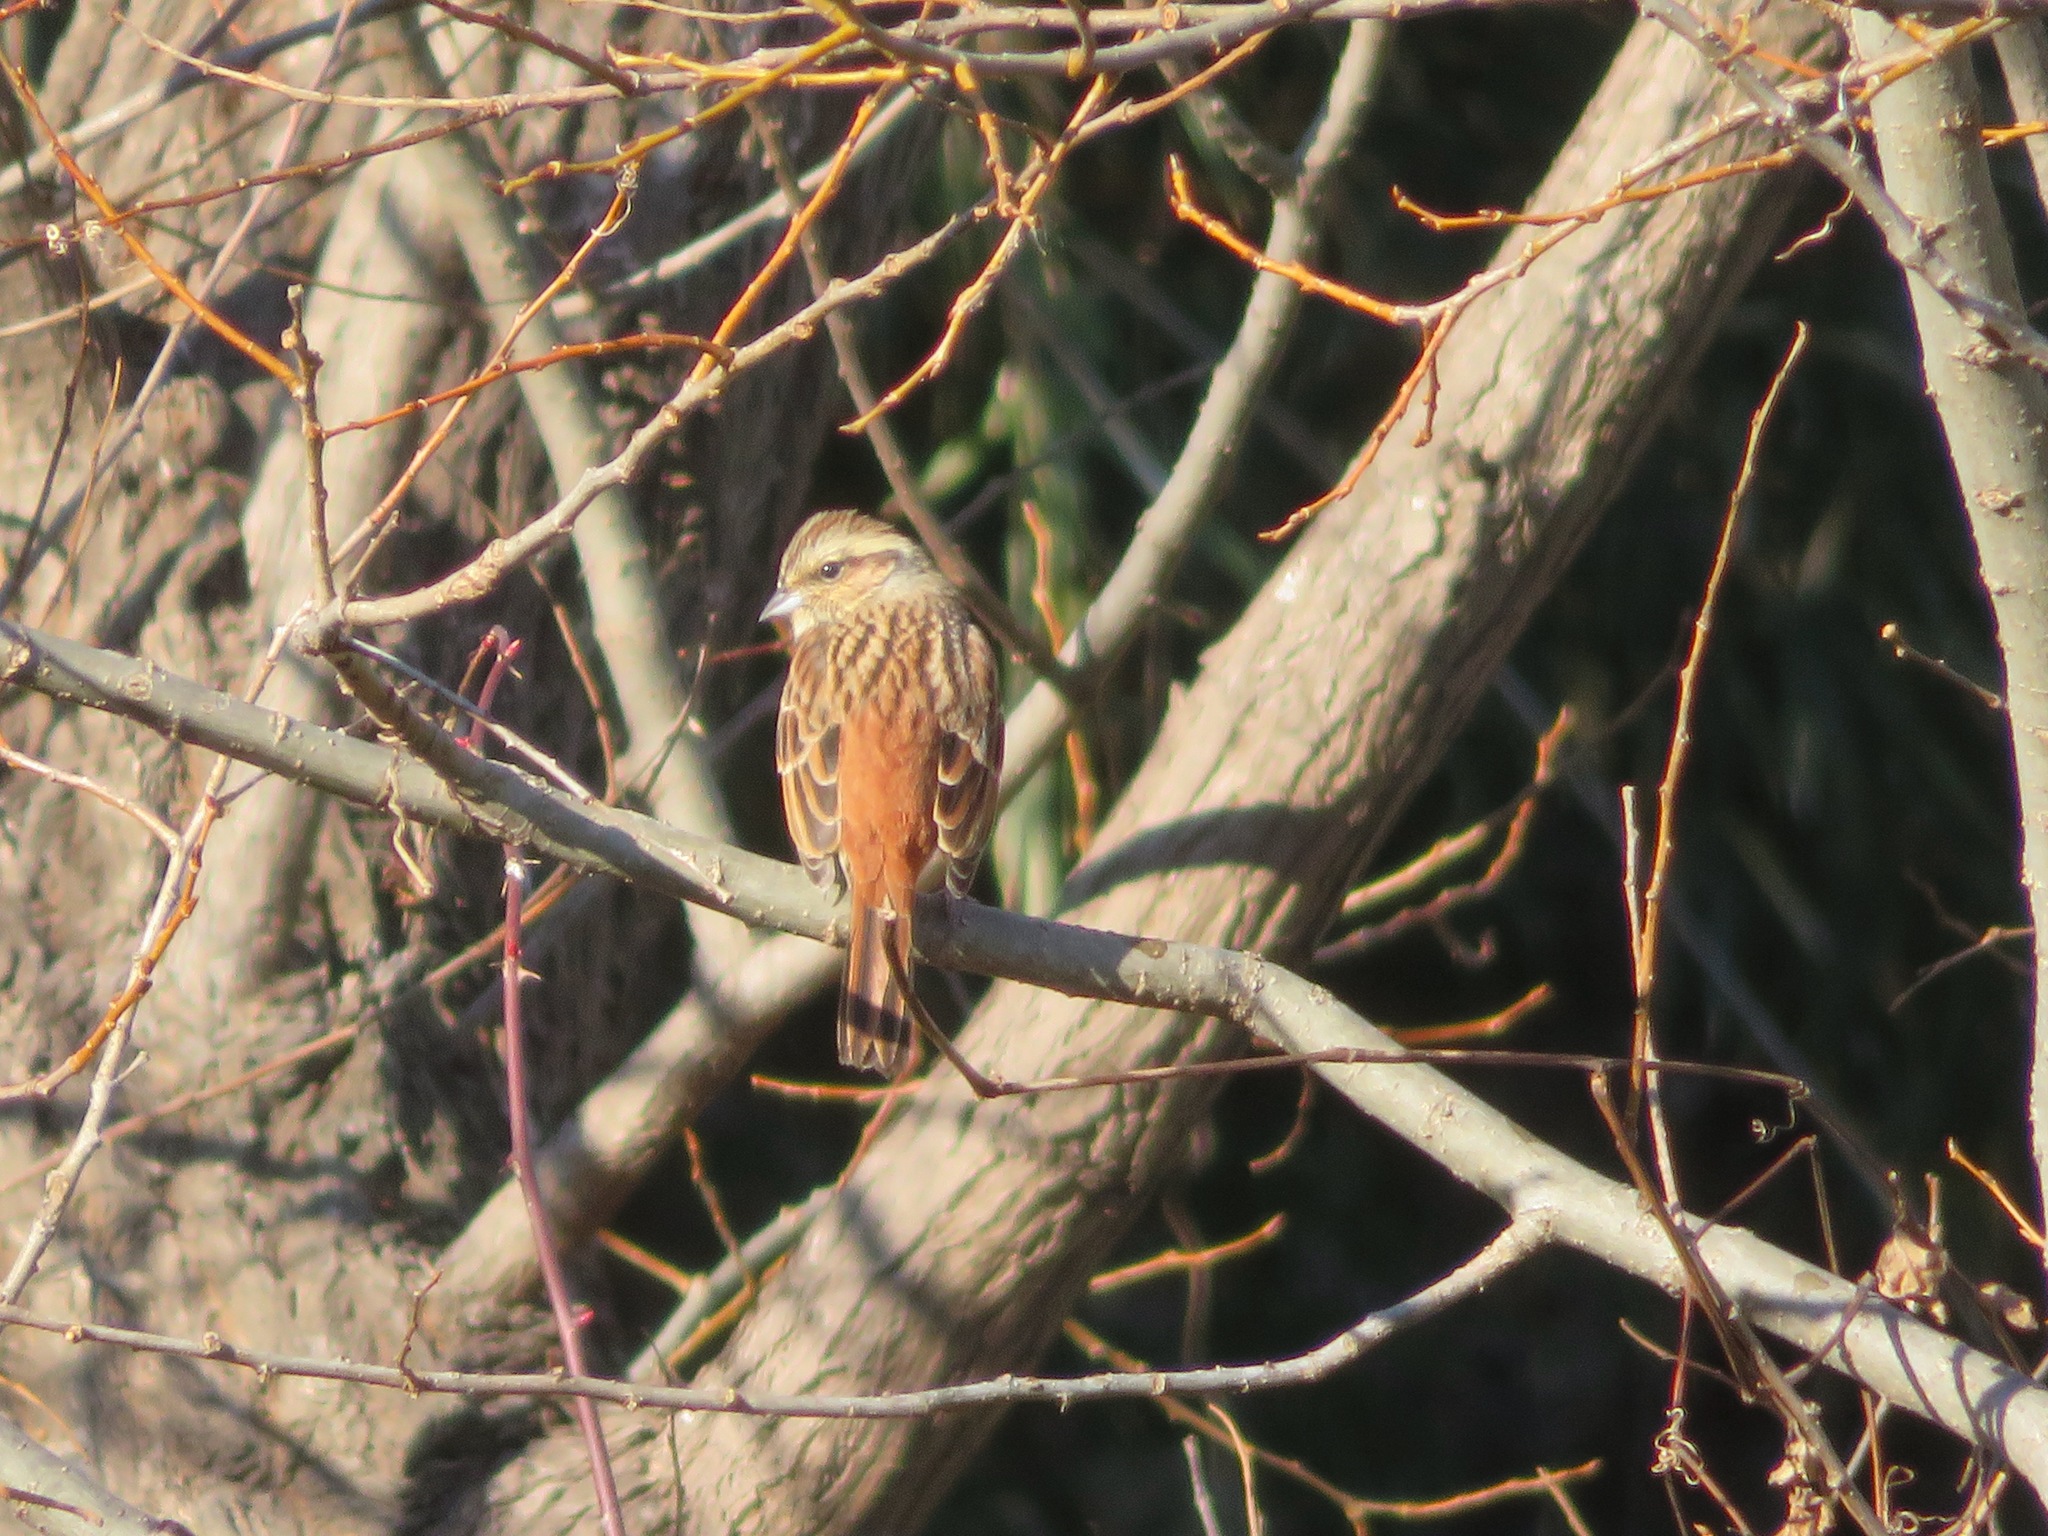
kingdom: Animalia
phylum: Chordata
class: Aves
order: Passeriformes
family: Emberizidae
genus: Emberiza
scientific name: Emberiza cioides
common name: Meadow bunting
